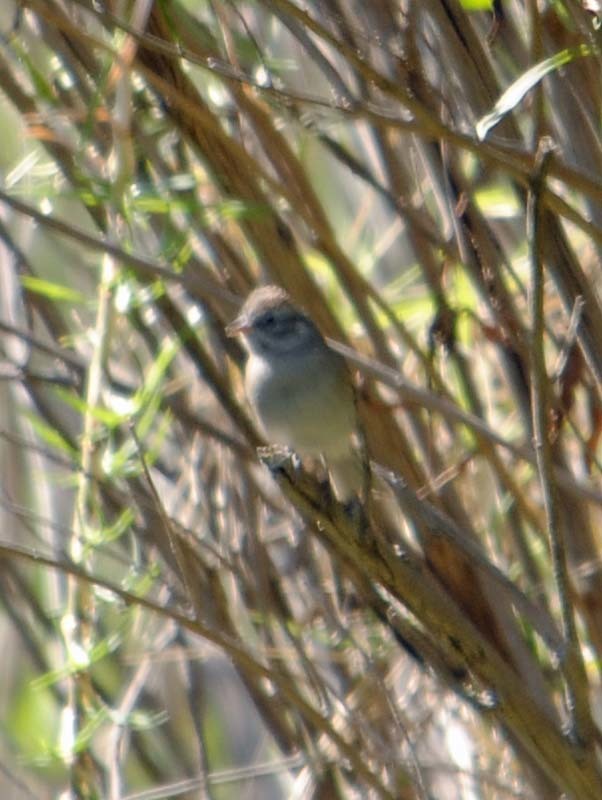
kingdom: Animalia
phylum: Chordata
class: Aves
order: Passeriformes
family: Passerellidae
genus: Spizella
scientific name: Spizella passerina
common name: Chipping sparrow
